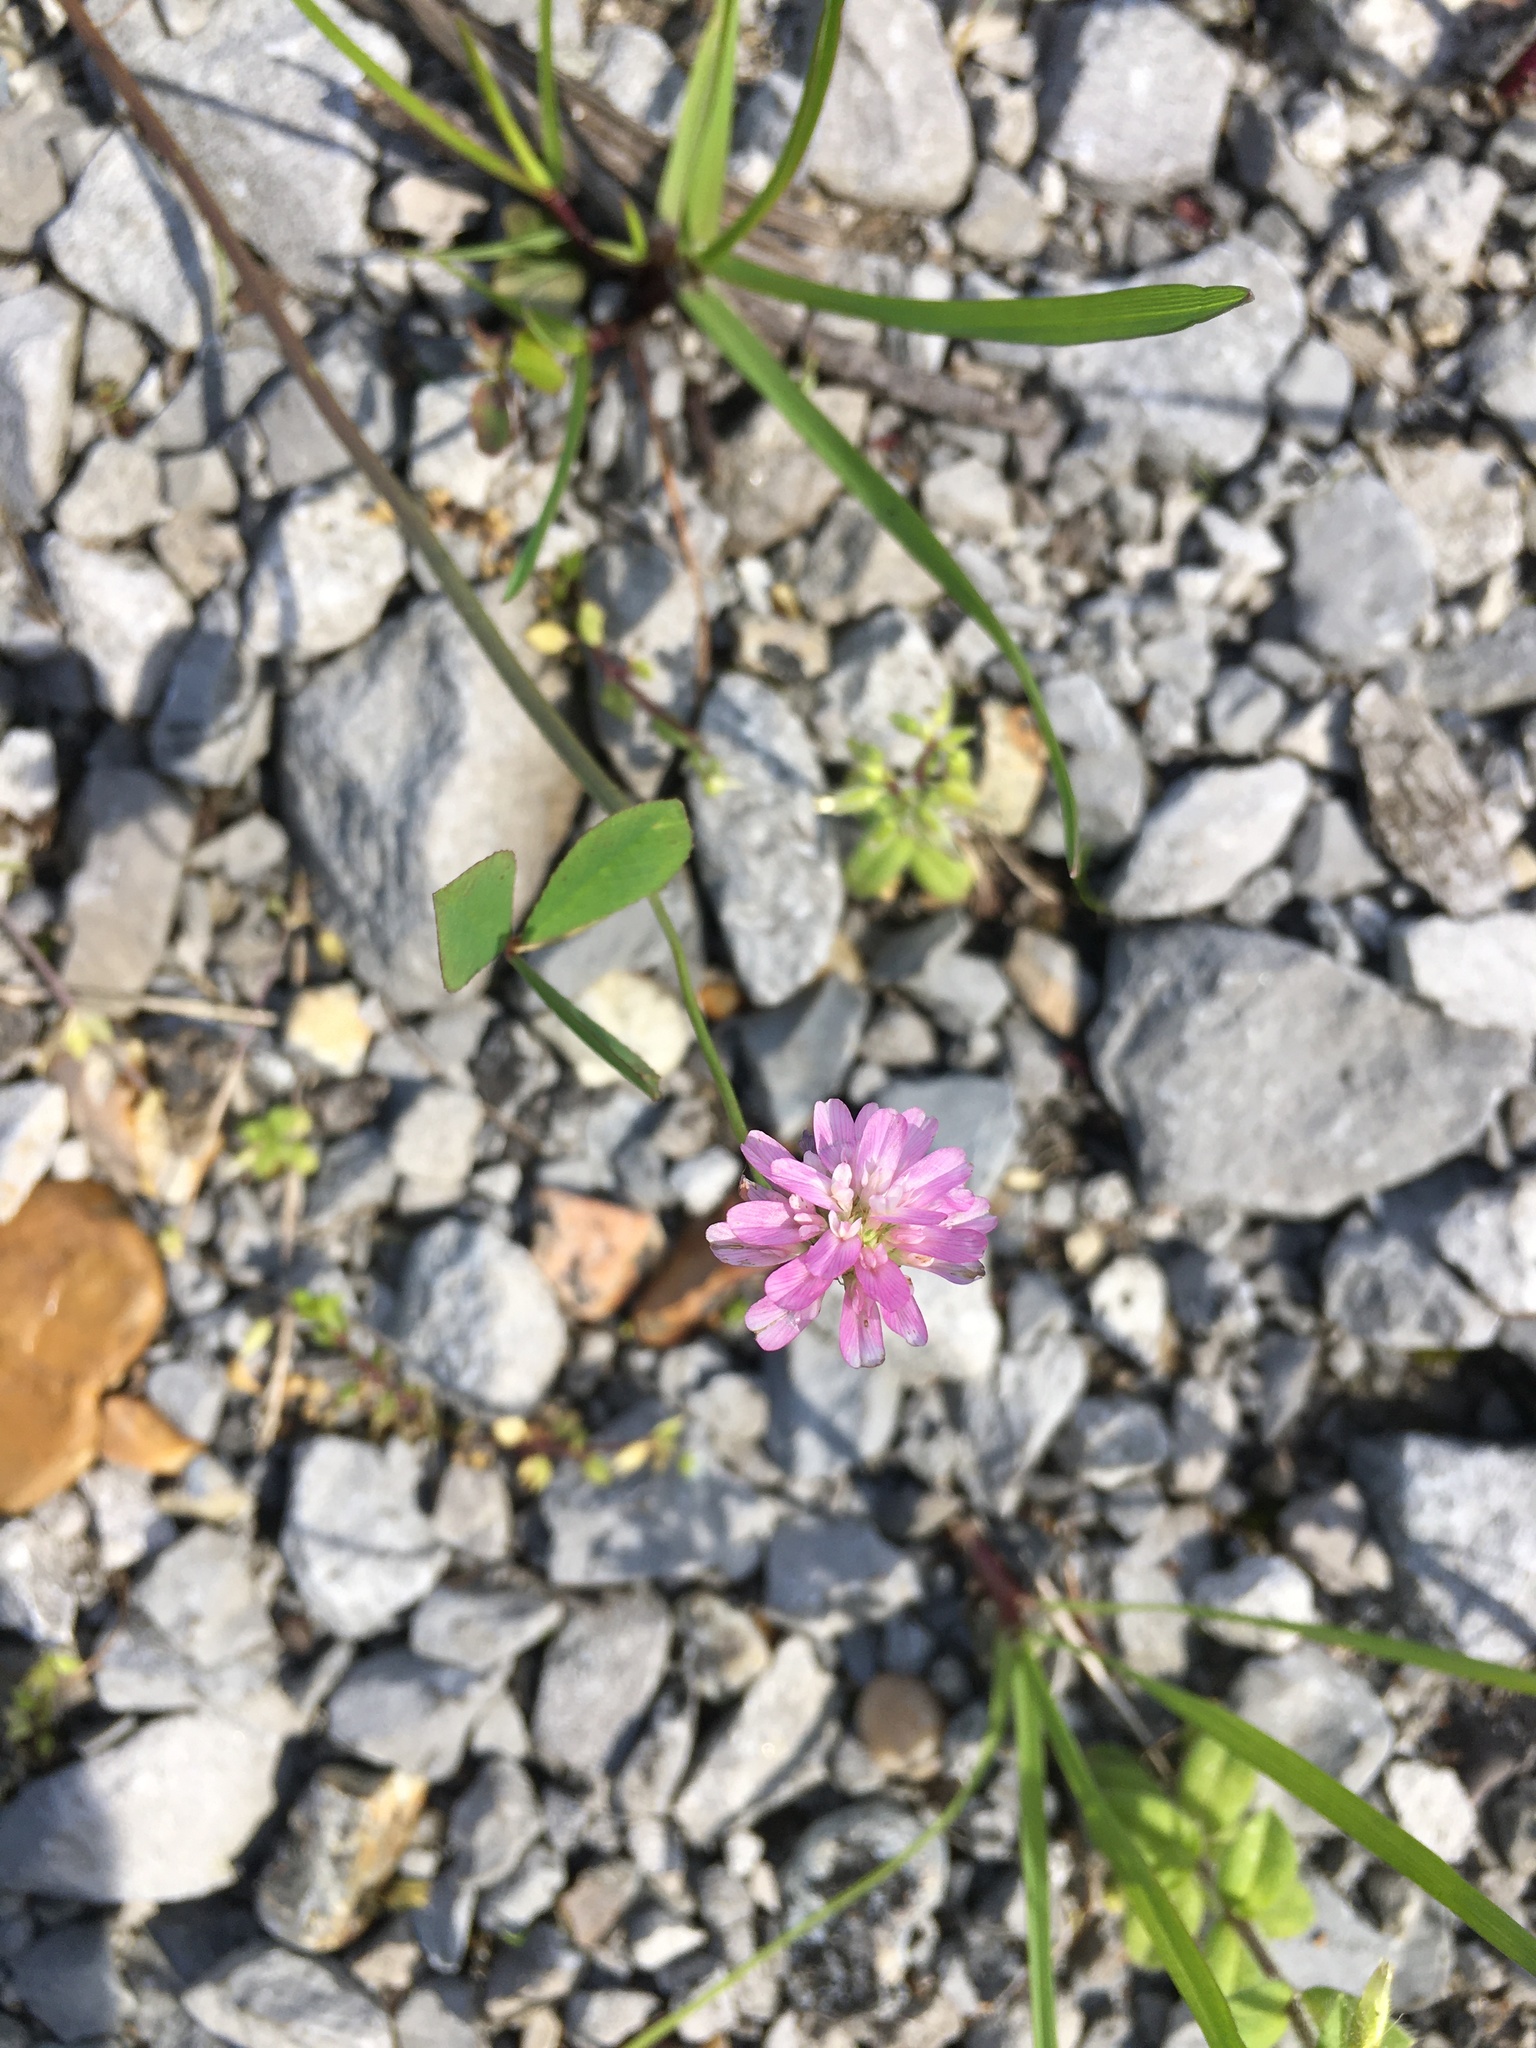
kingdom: Plantae
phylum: Tracheophyta
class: Magnoliopsida
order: Fabales
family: Fabaceae
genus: Trifolium
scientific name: Trifolium resupinatum
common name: Reversed clover
